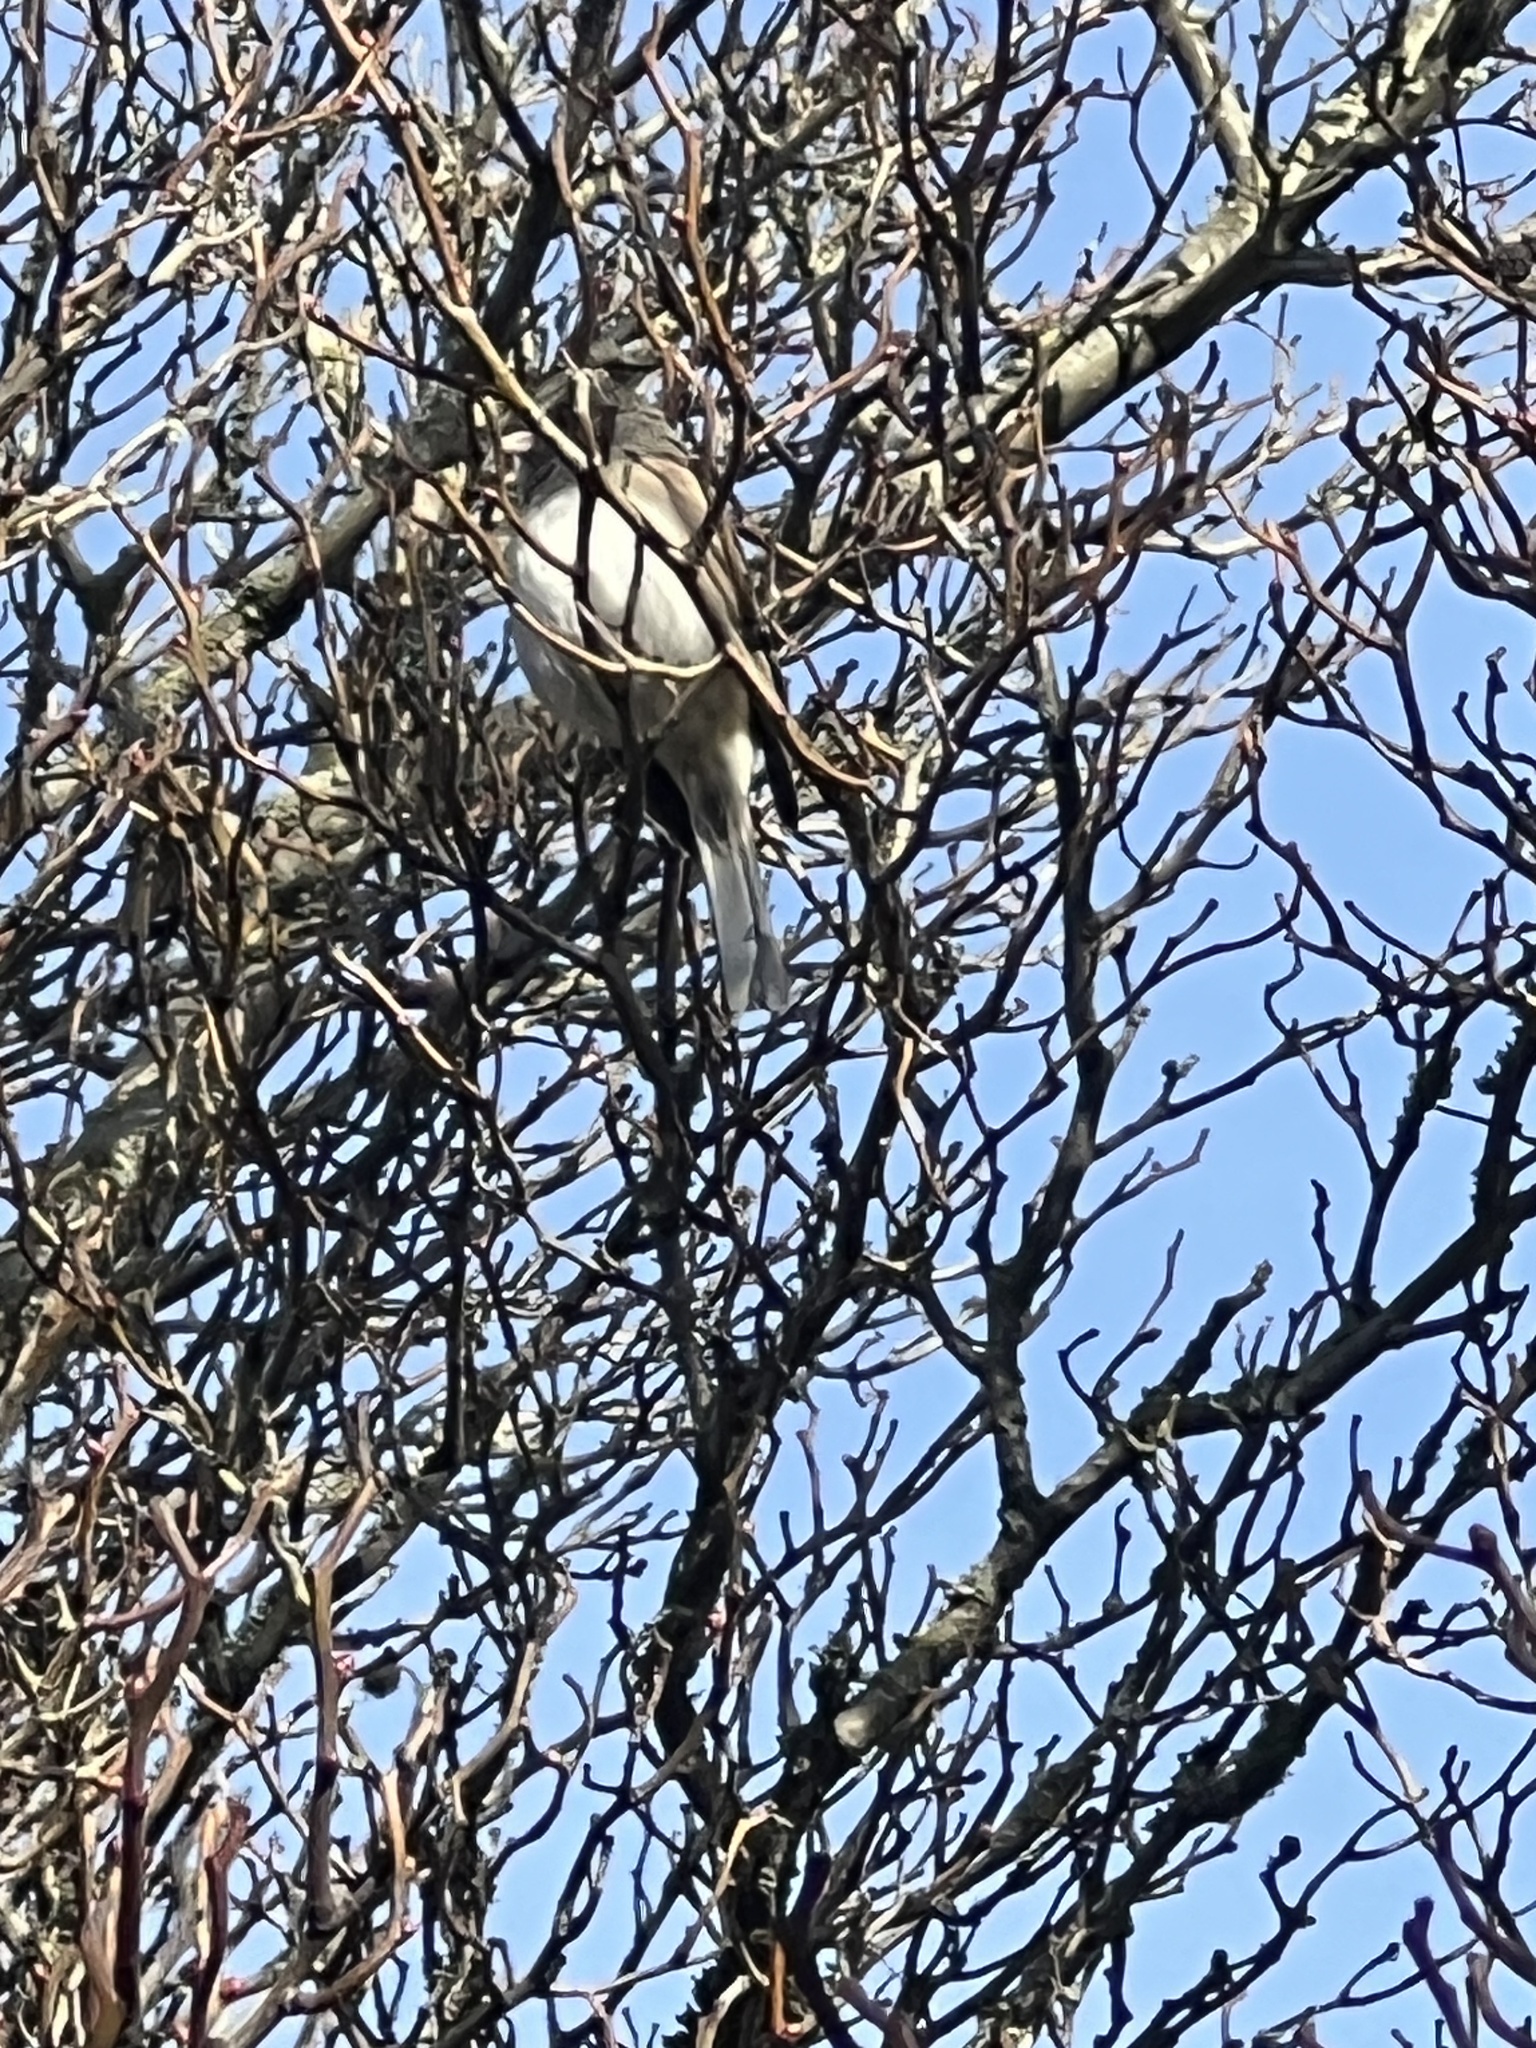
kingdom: Animalia
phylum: Chordata
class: Aves
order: Passeriformes
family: Passerellidae
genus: Junco
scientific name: Junco hyemalis
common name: Dark-eyed junco
